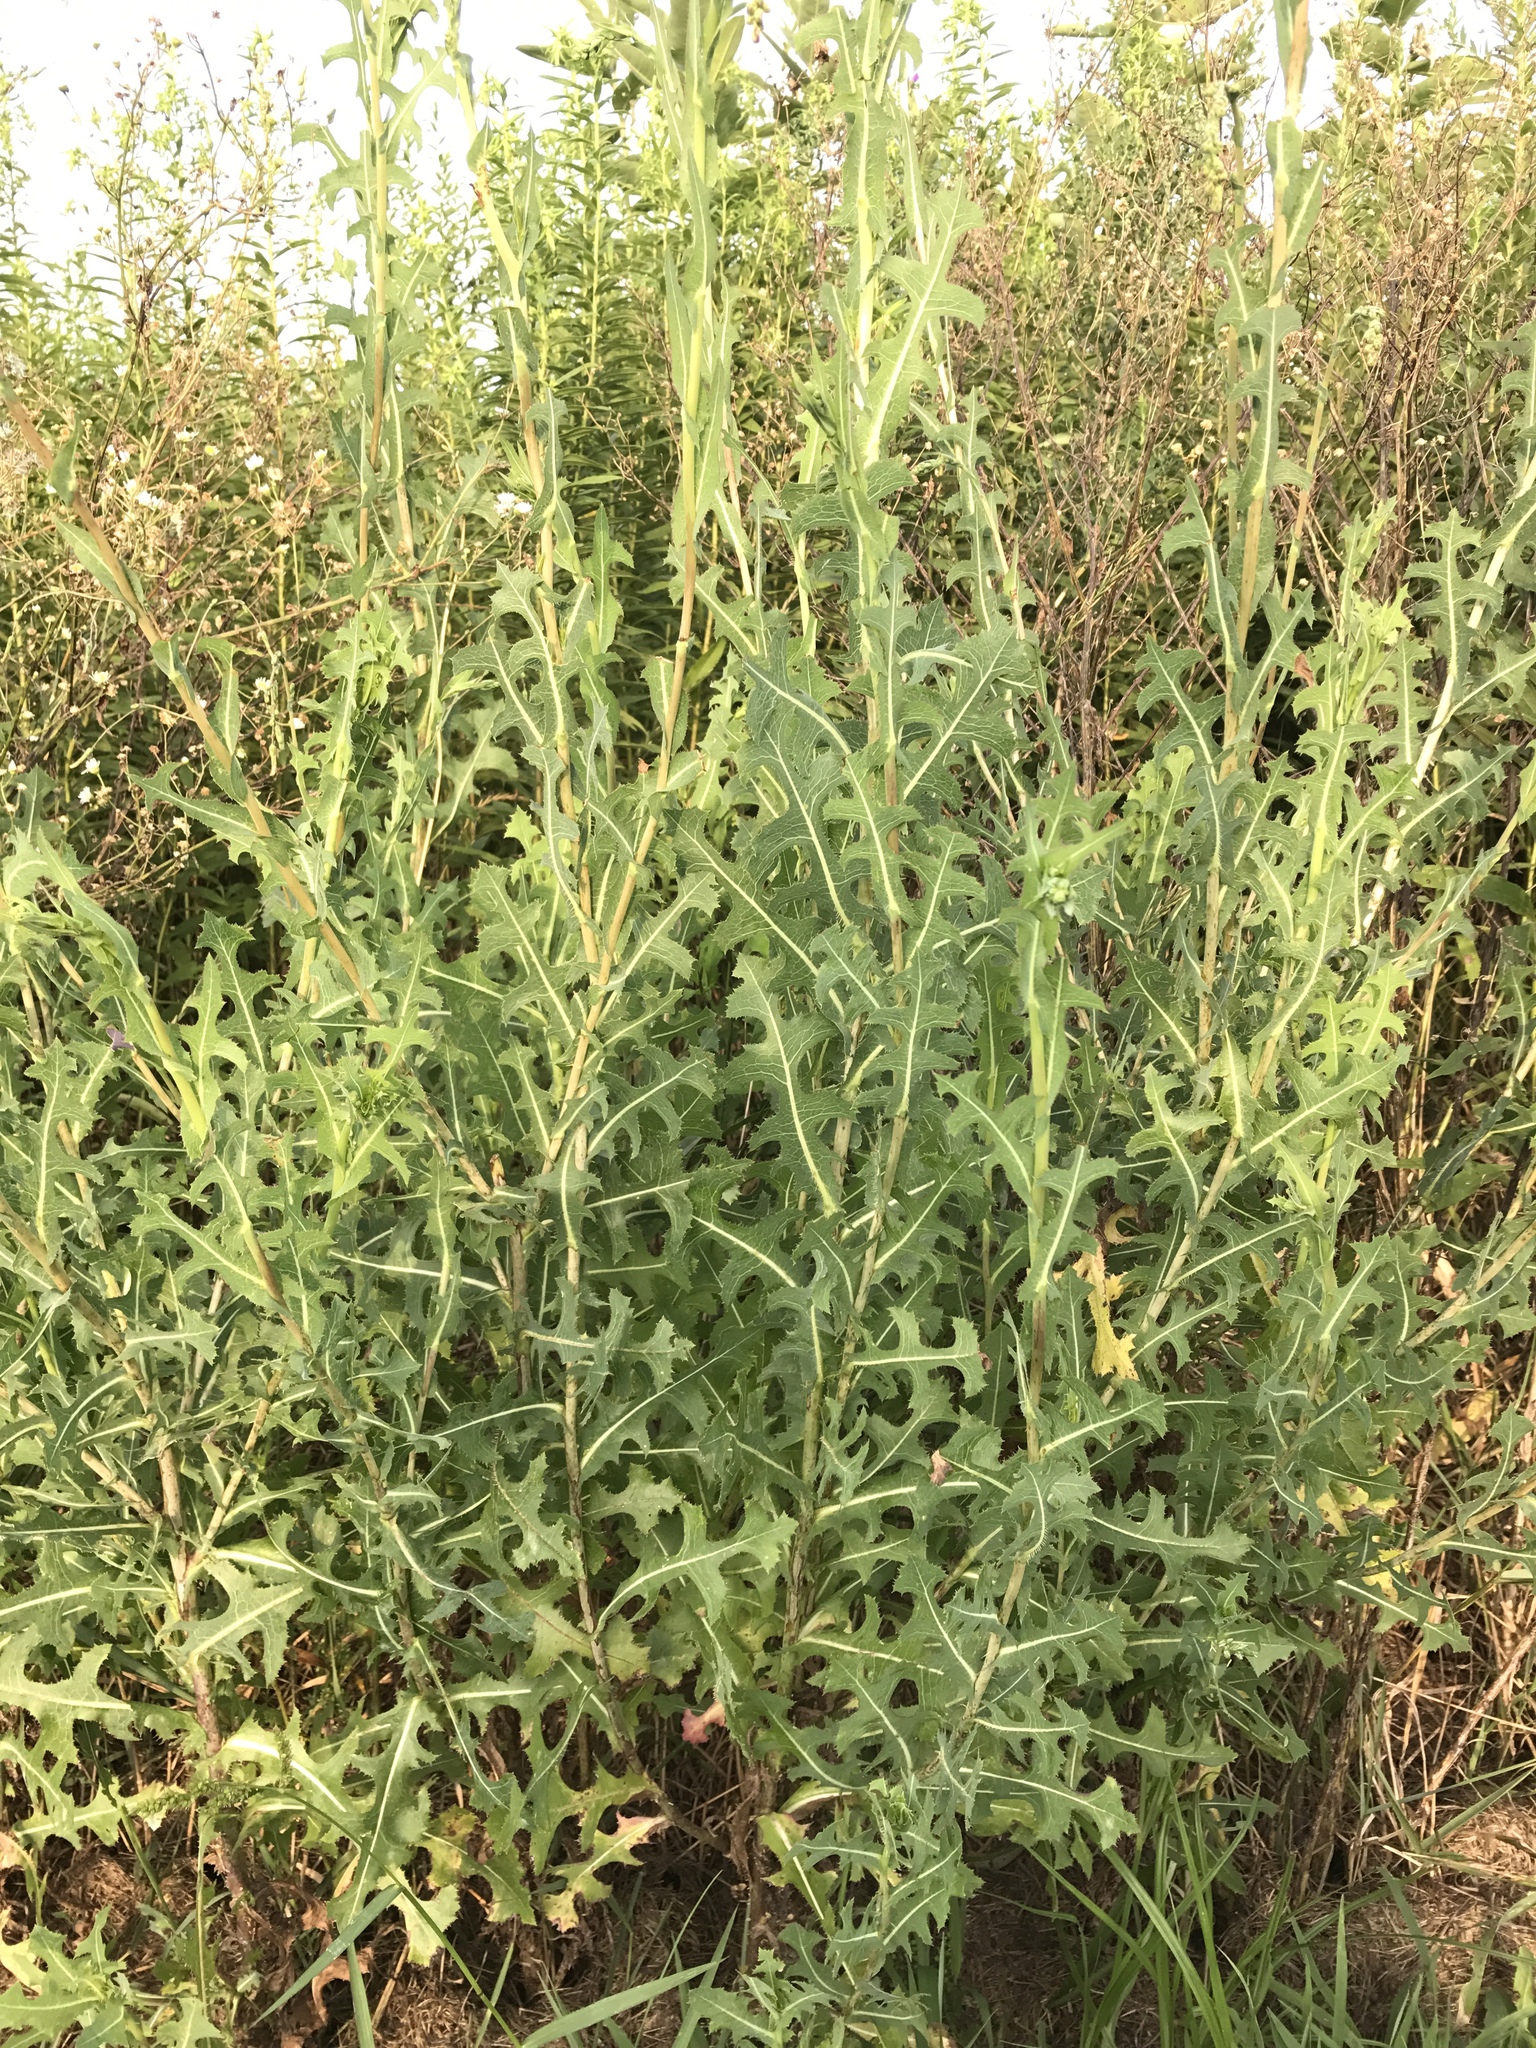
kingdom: Plantae
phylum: Tracheophyta
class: Magnoliopsida
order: Asterales
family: Asteraceae
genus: Lactuca
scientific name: Lactuca serriola
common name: Prickly lettuce
